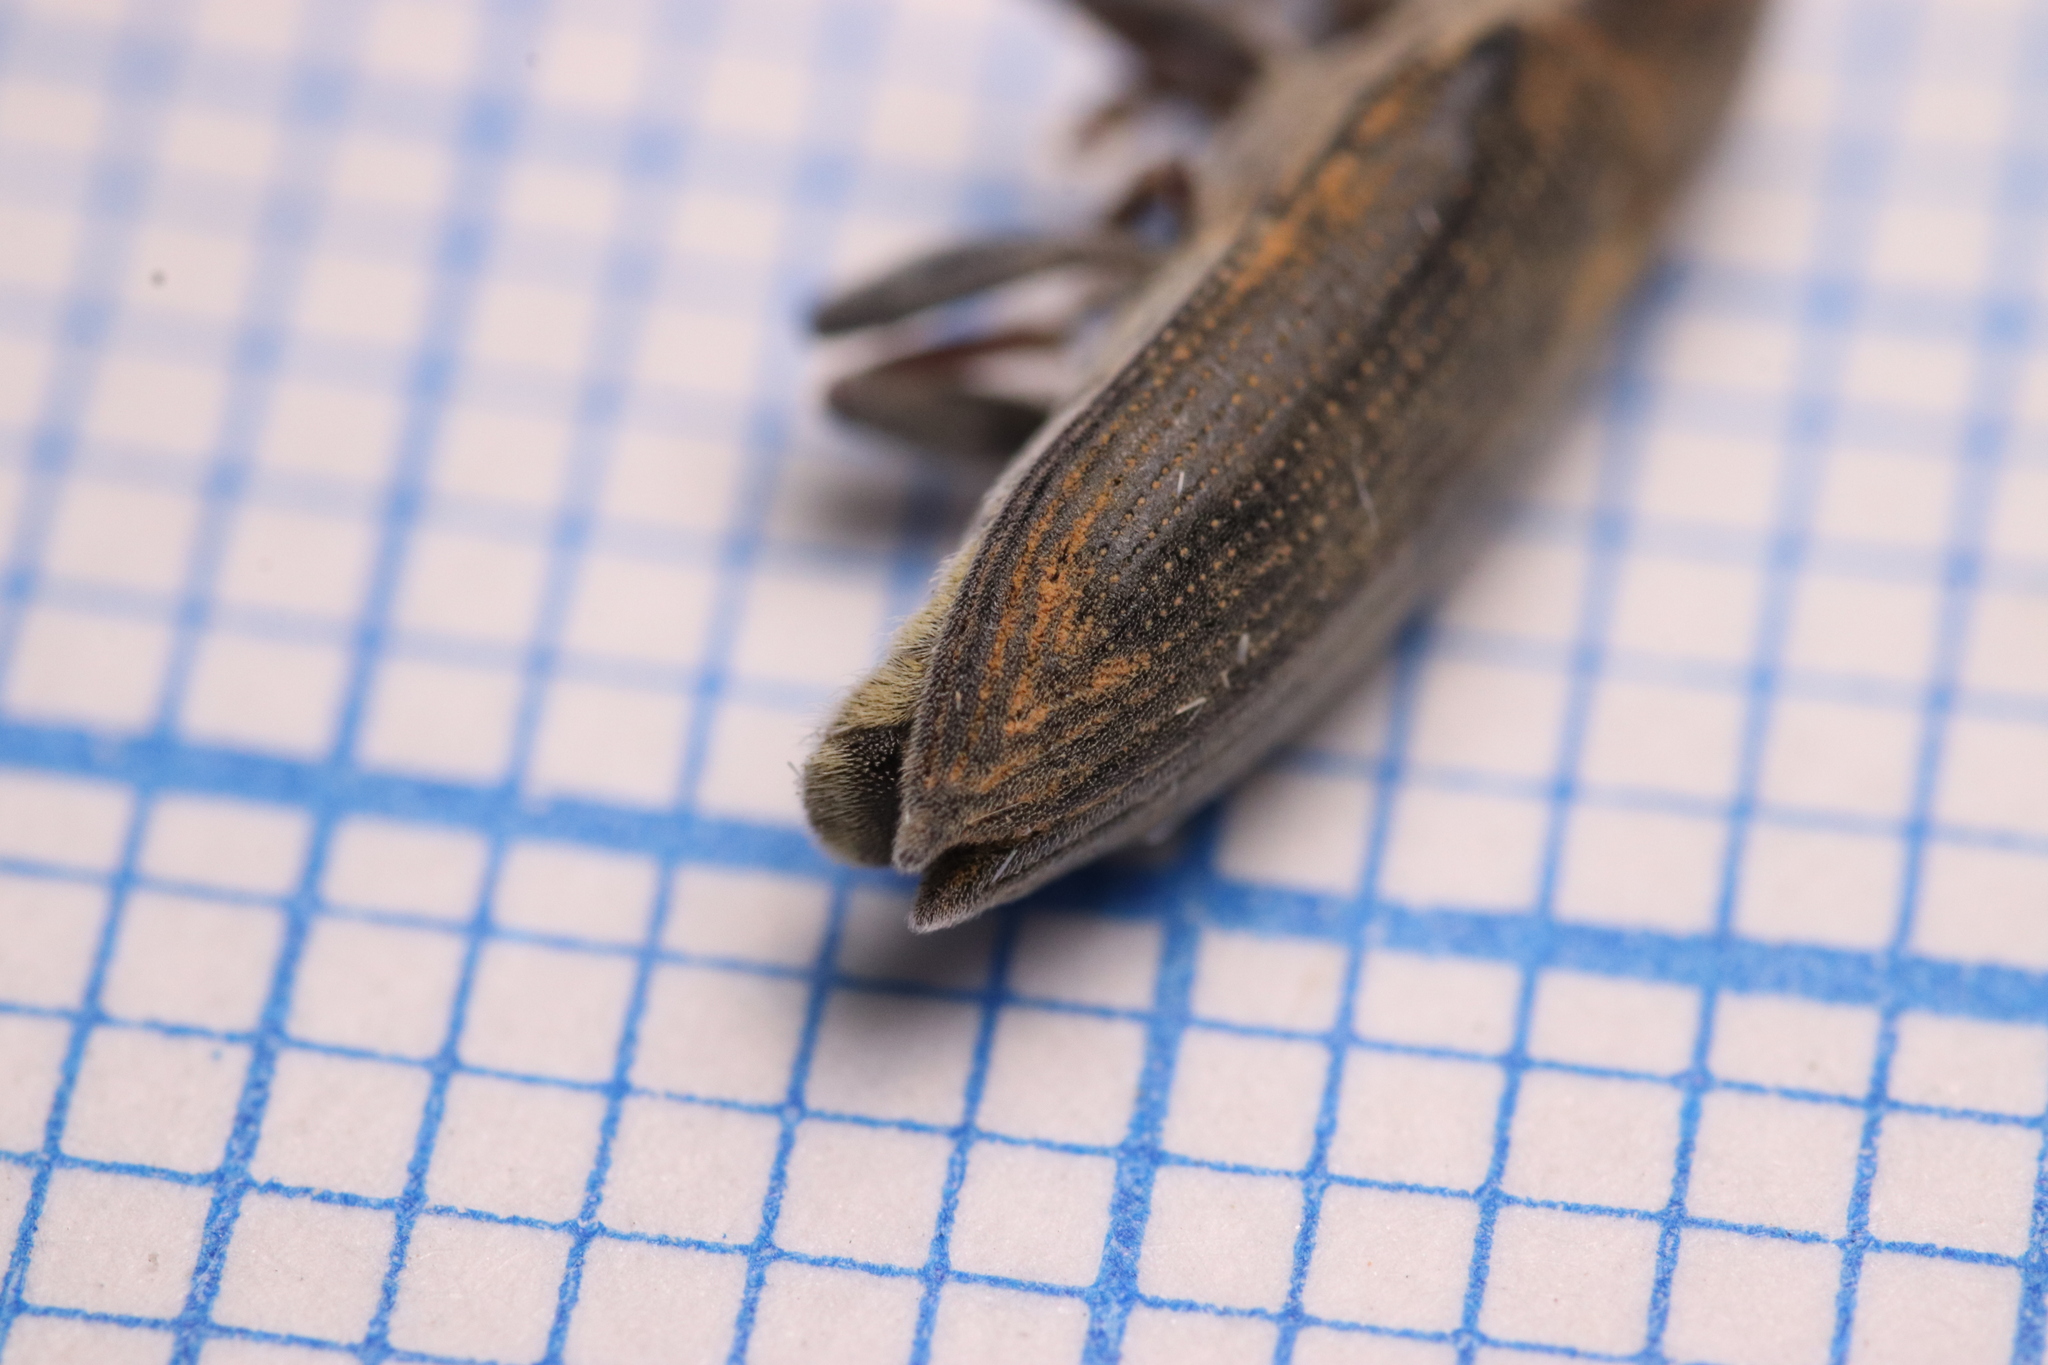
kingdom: Animalia
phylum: Arthropoda
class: Insecta
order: Coleoptera
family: Curculionidae
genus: Lixus
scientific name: Lixus acicularis
